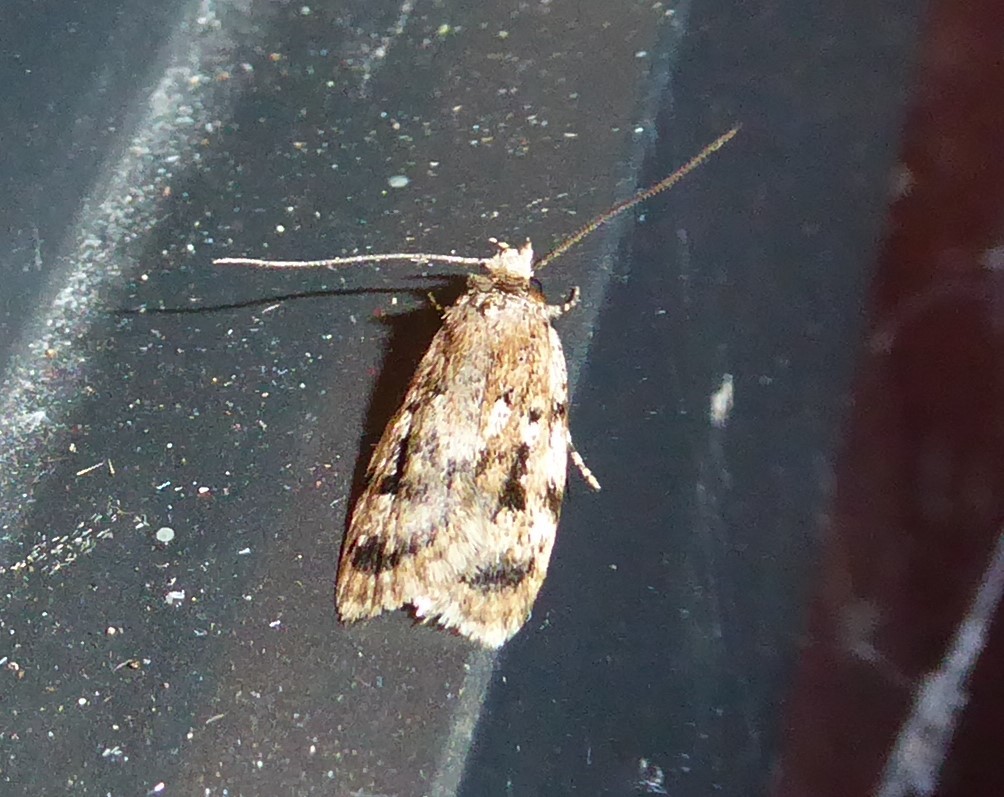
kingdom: Animalia
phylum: Arthropoda
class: Insecta
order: Lepidoptera
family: Oecophoridae
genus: Barea
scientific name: Barea exarcha
